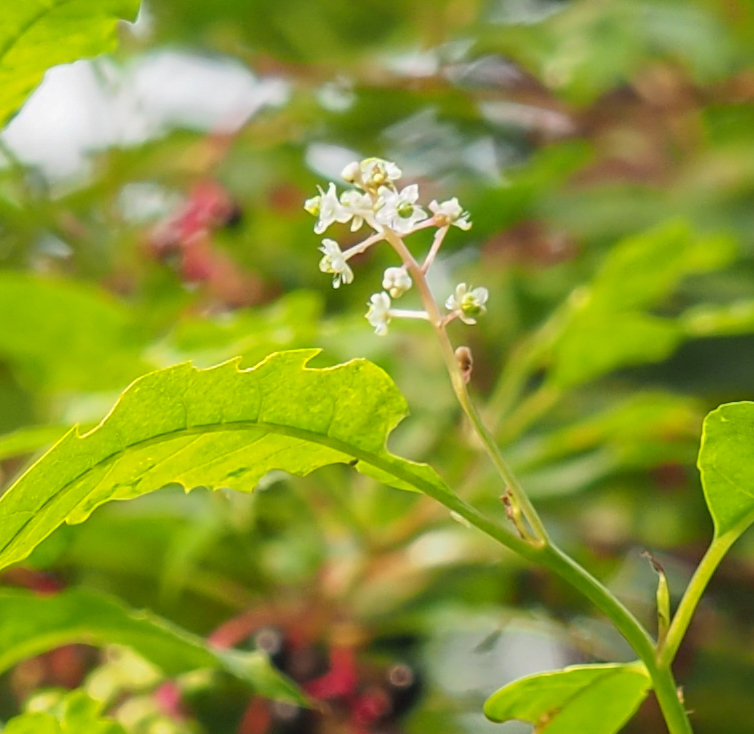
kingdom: Plantae
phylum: Tracheophyta
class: Magnoliopsida
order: Caryophyllales
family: Phytolaccaceae
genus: Phytolacca
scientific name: Phytolacca americana
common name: American pokeweed
